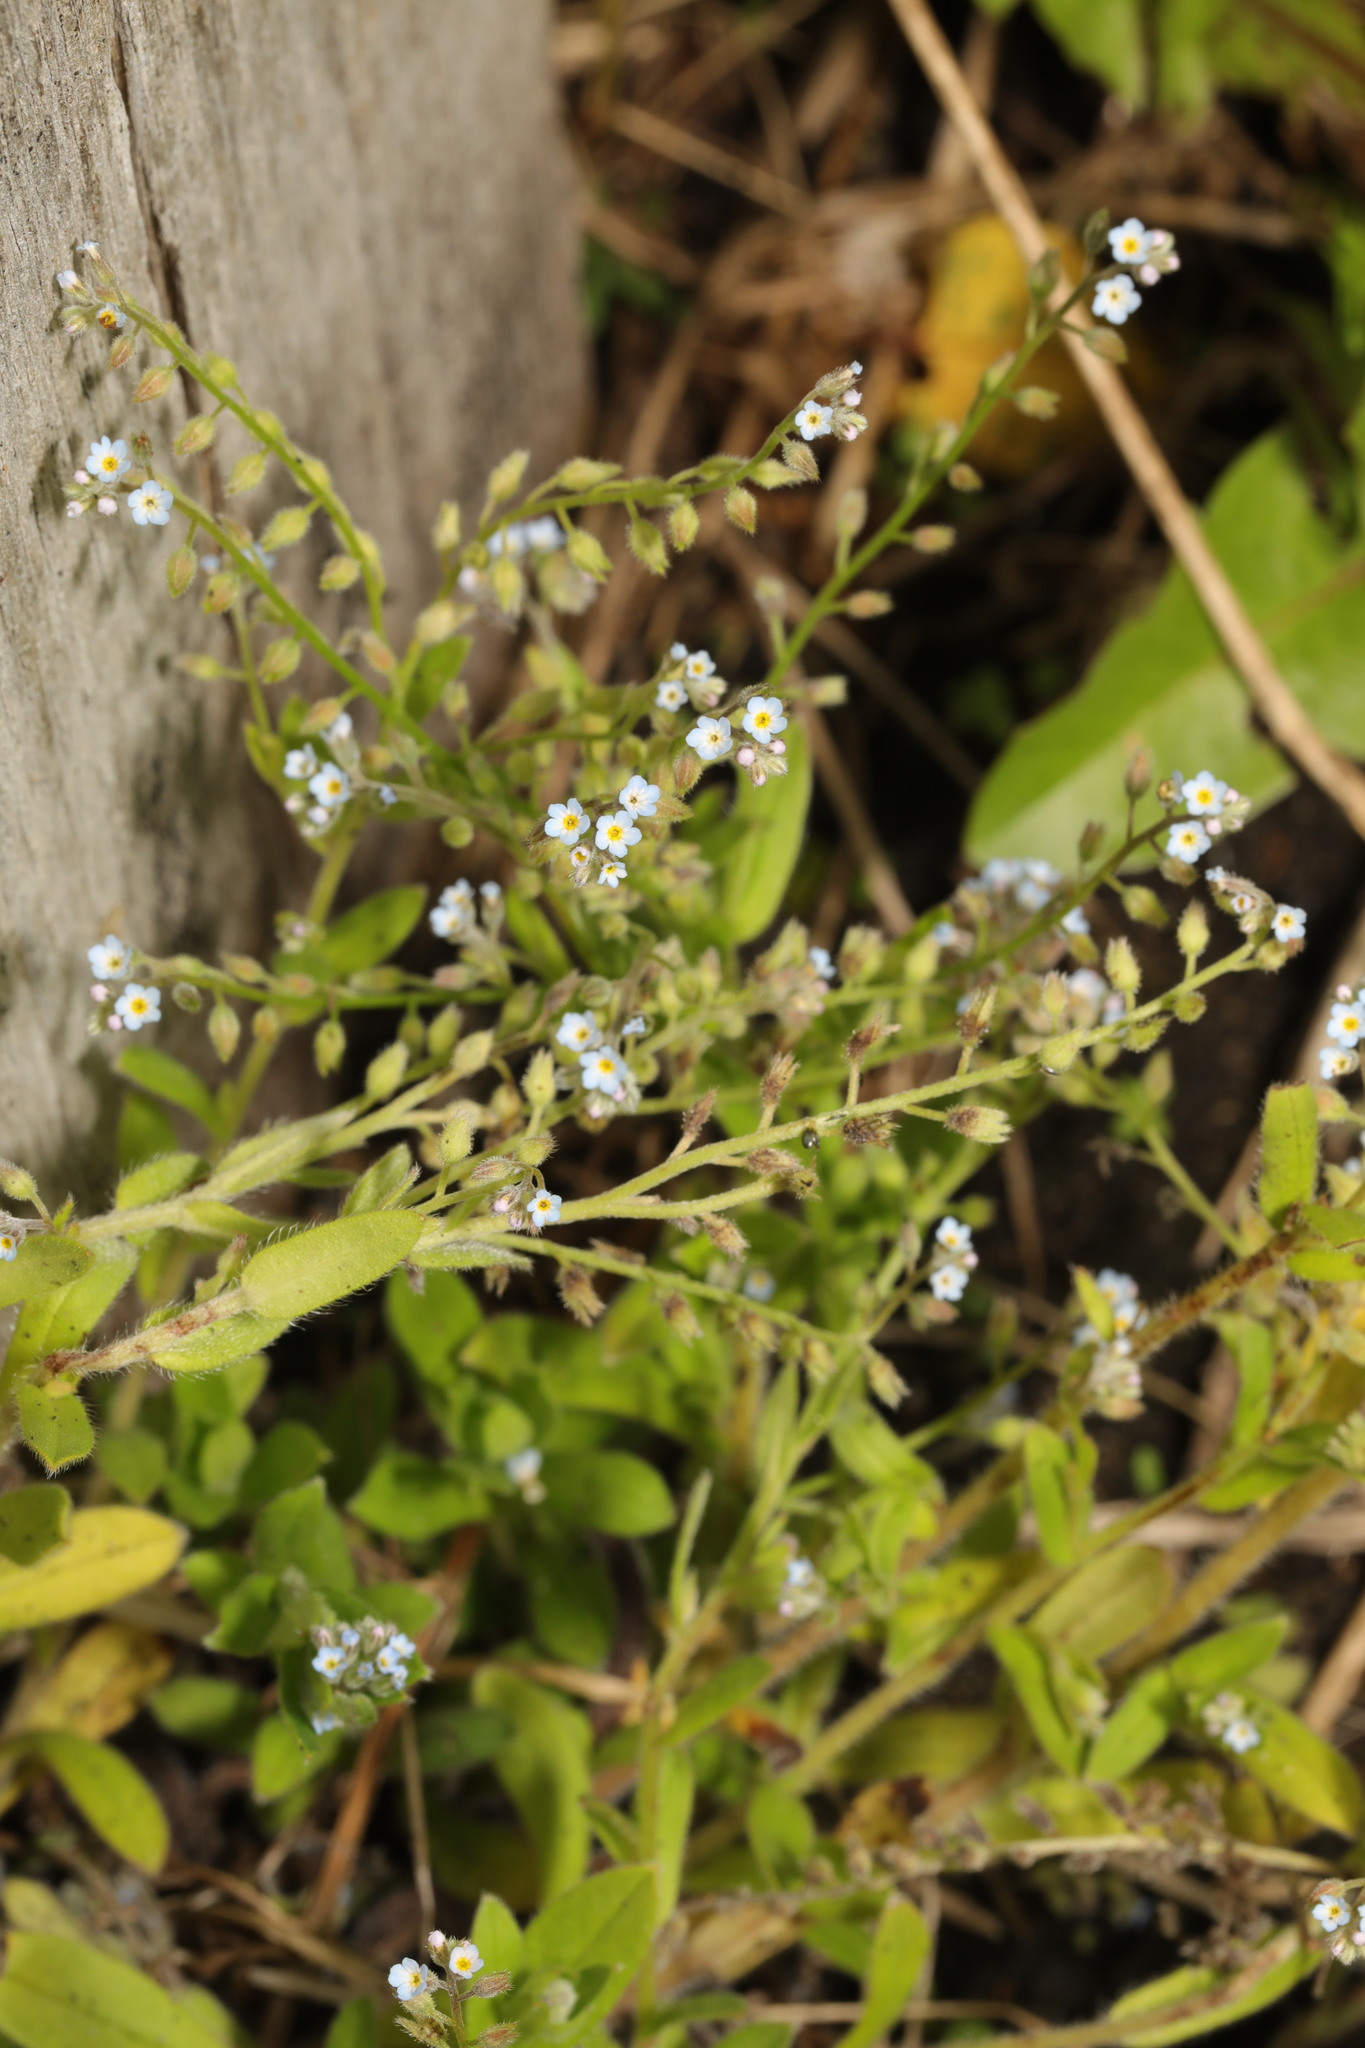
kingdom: Plantae
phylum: Tracheophyta
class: Magnoliopsida
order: Boraginales
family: Boraginaceae
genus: Myosotis
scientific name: Myosotis arvensis
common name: Field forget-me-not
